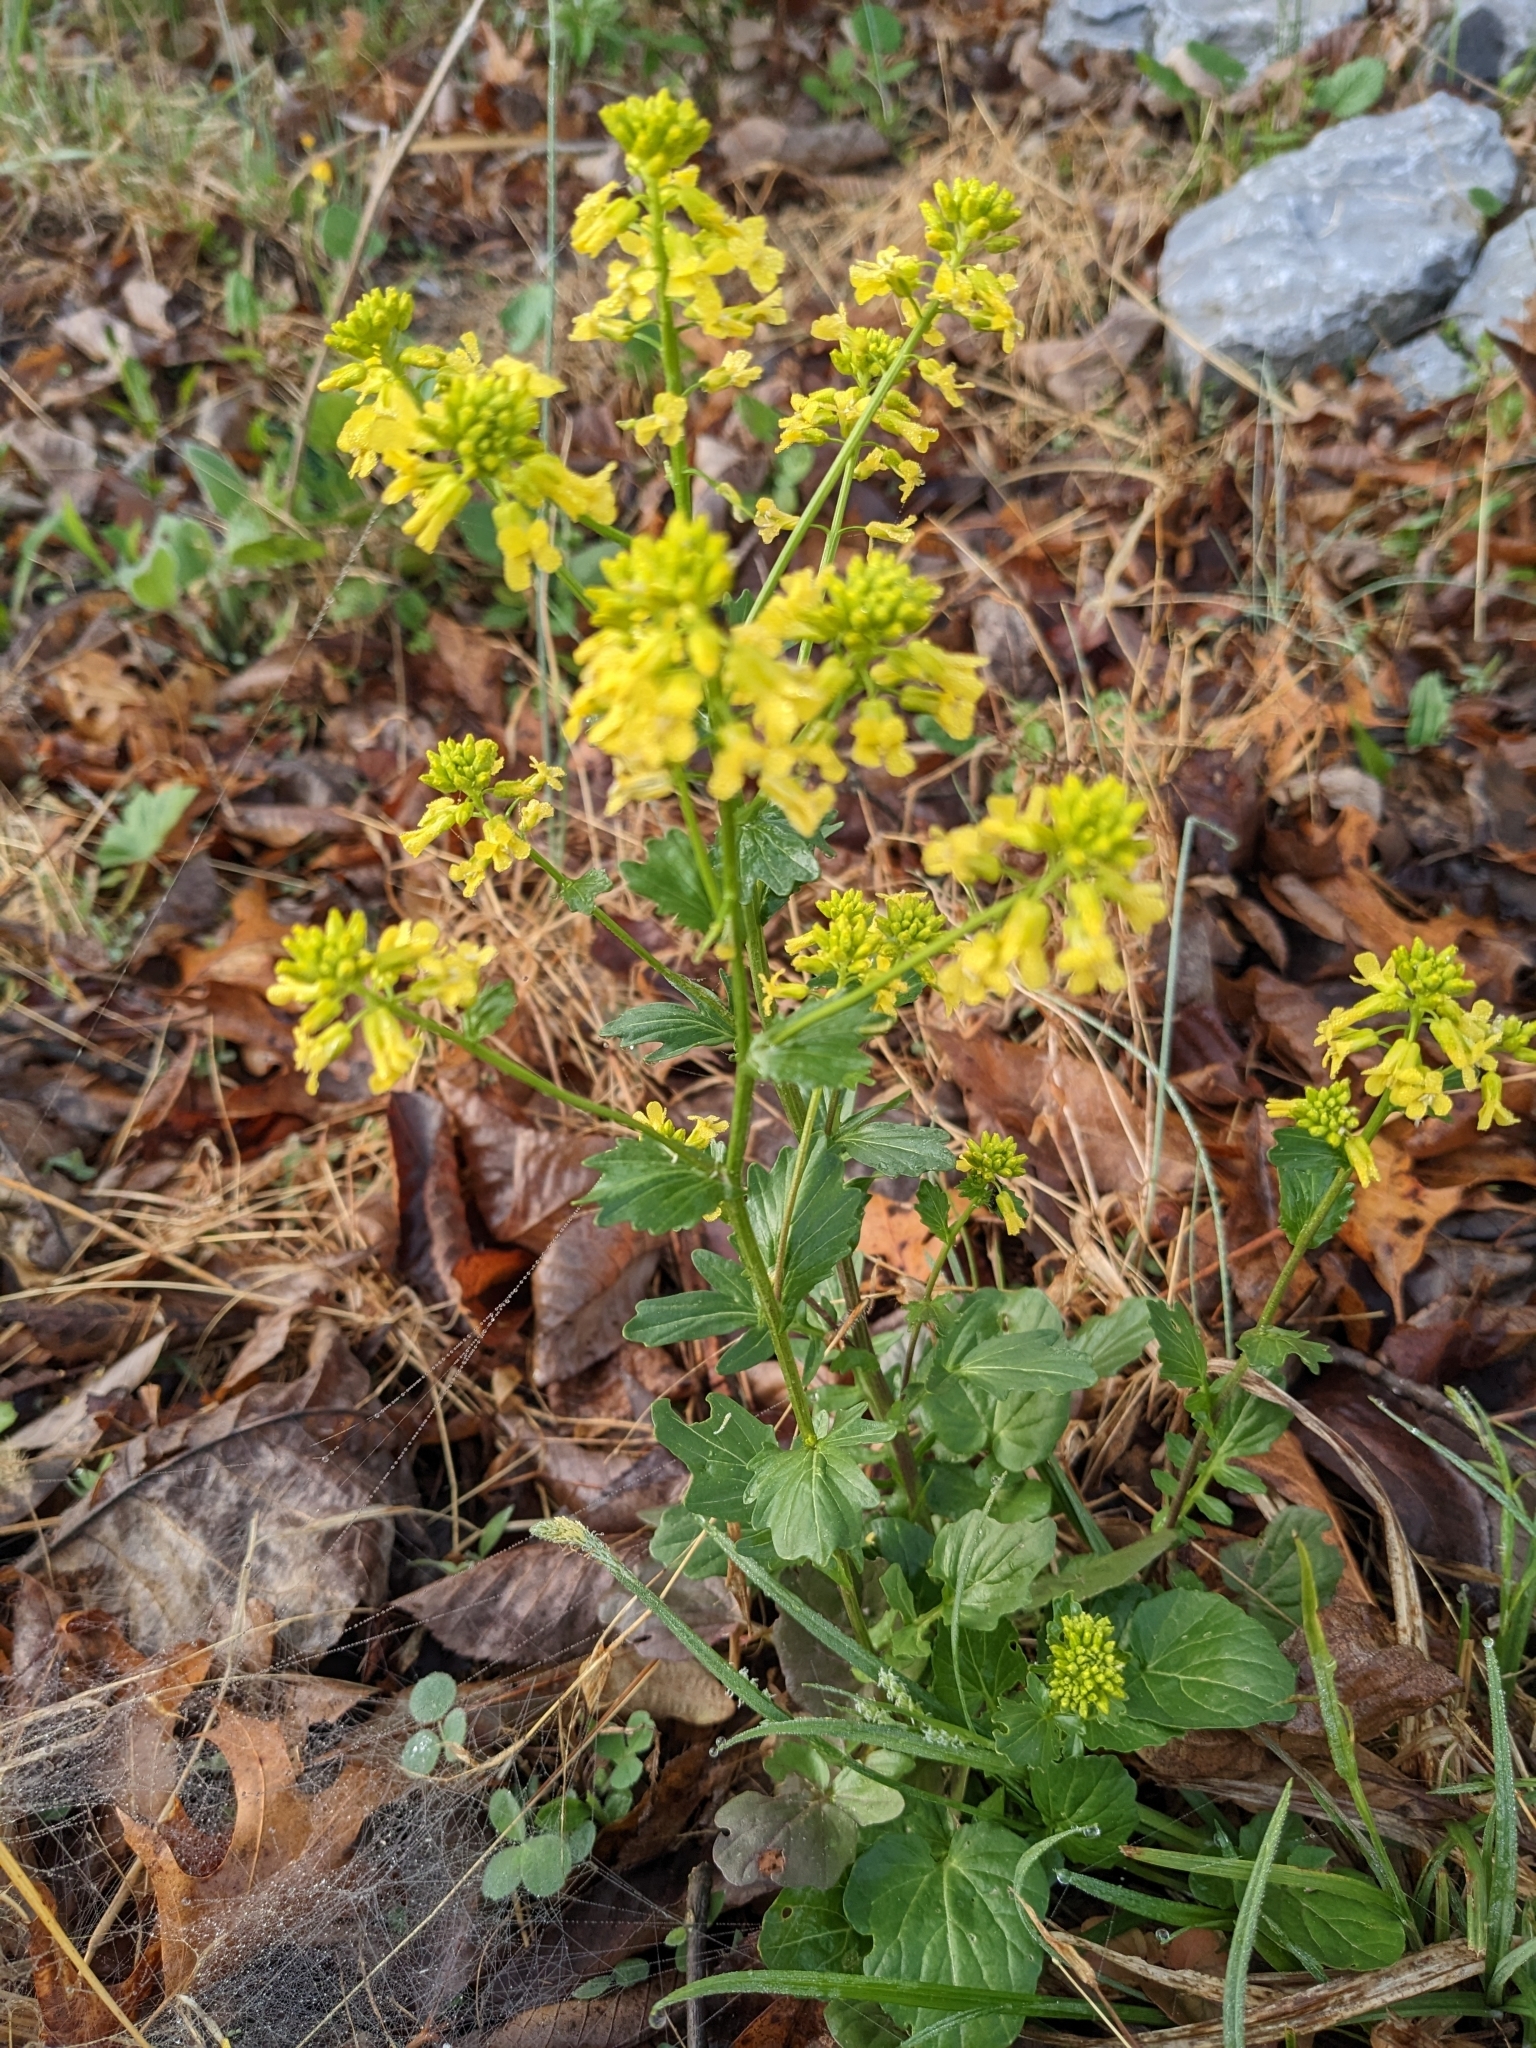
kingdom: Plantae
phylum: Tracheophyta
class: Magnoliopsida
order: Brassicales
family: Brassicaceae
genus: Barbarea
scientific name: Barbarea vulgaris
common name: Cressy-greens
